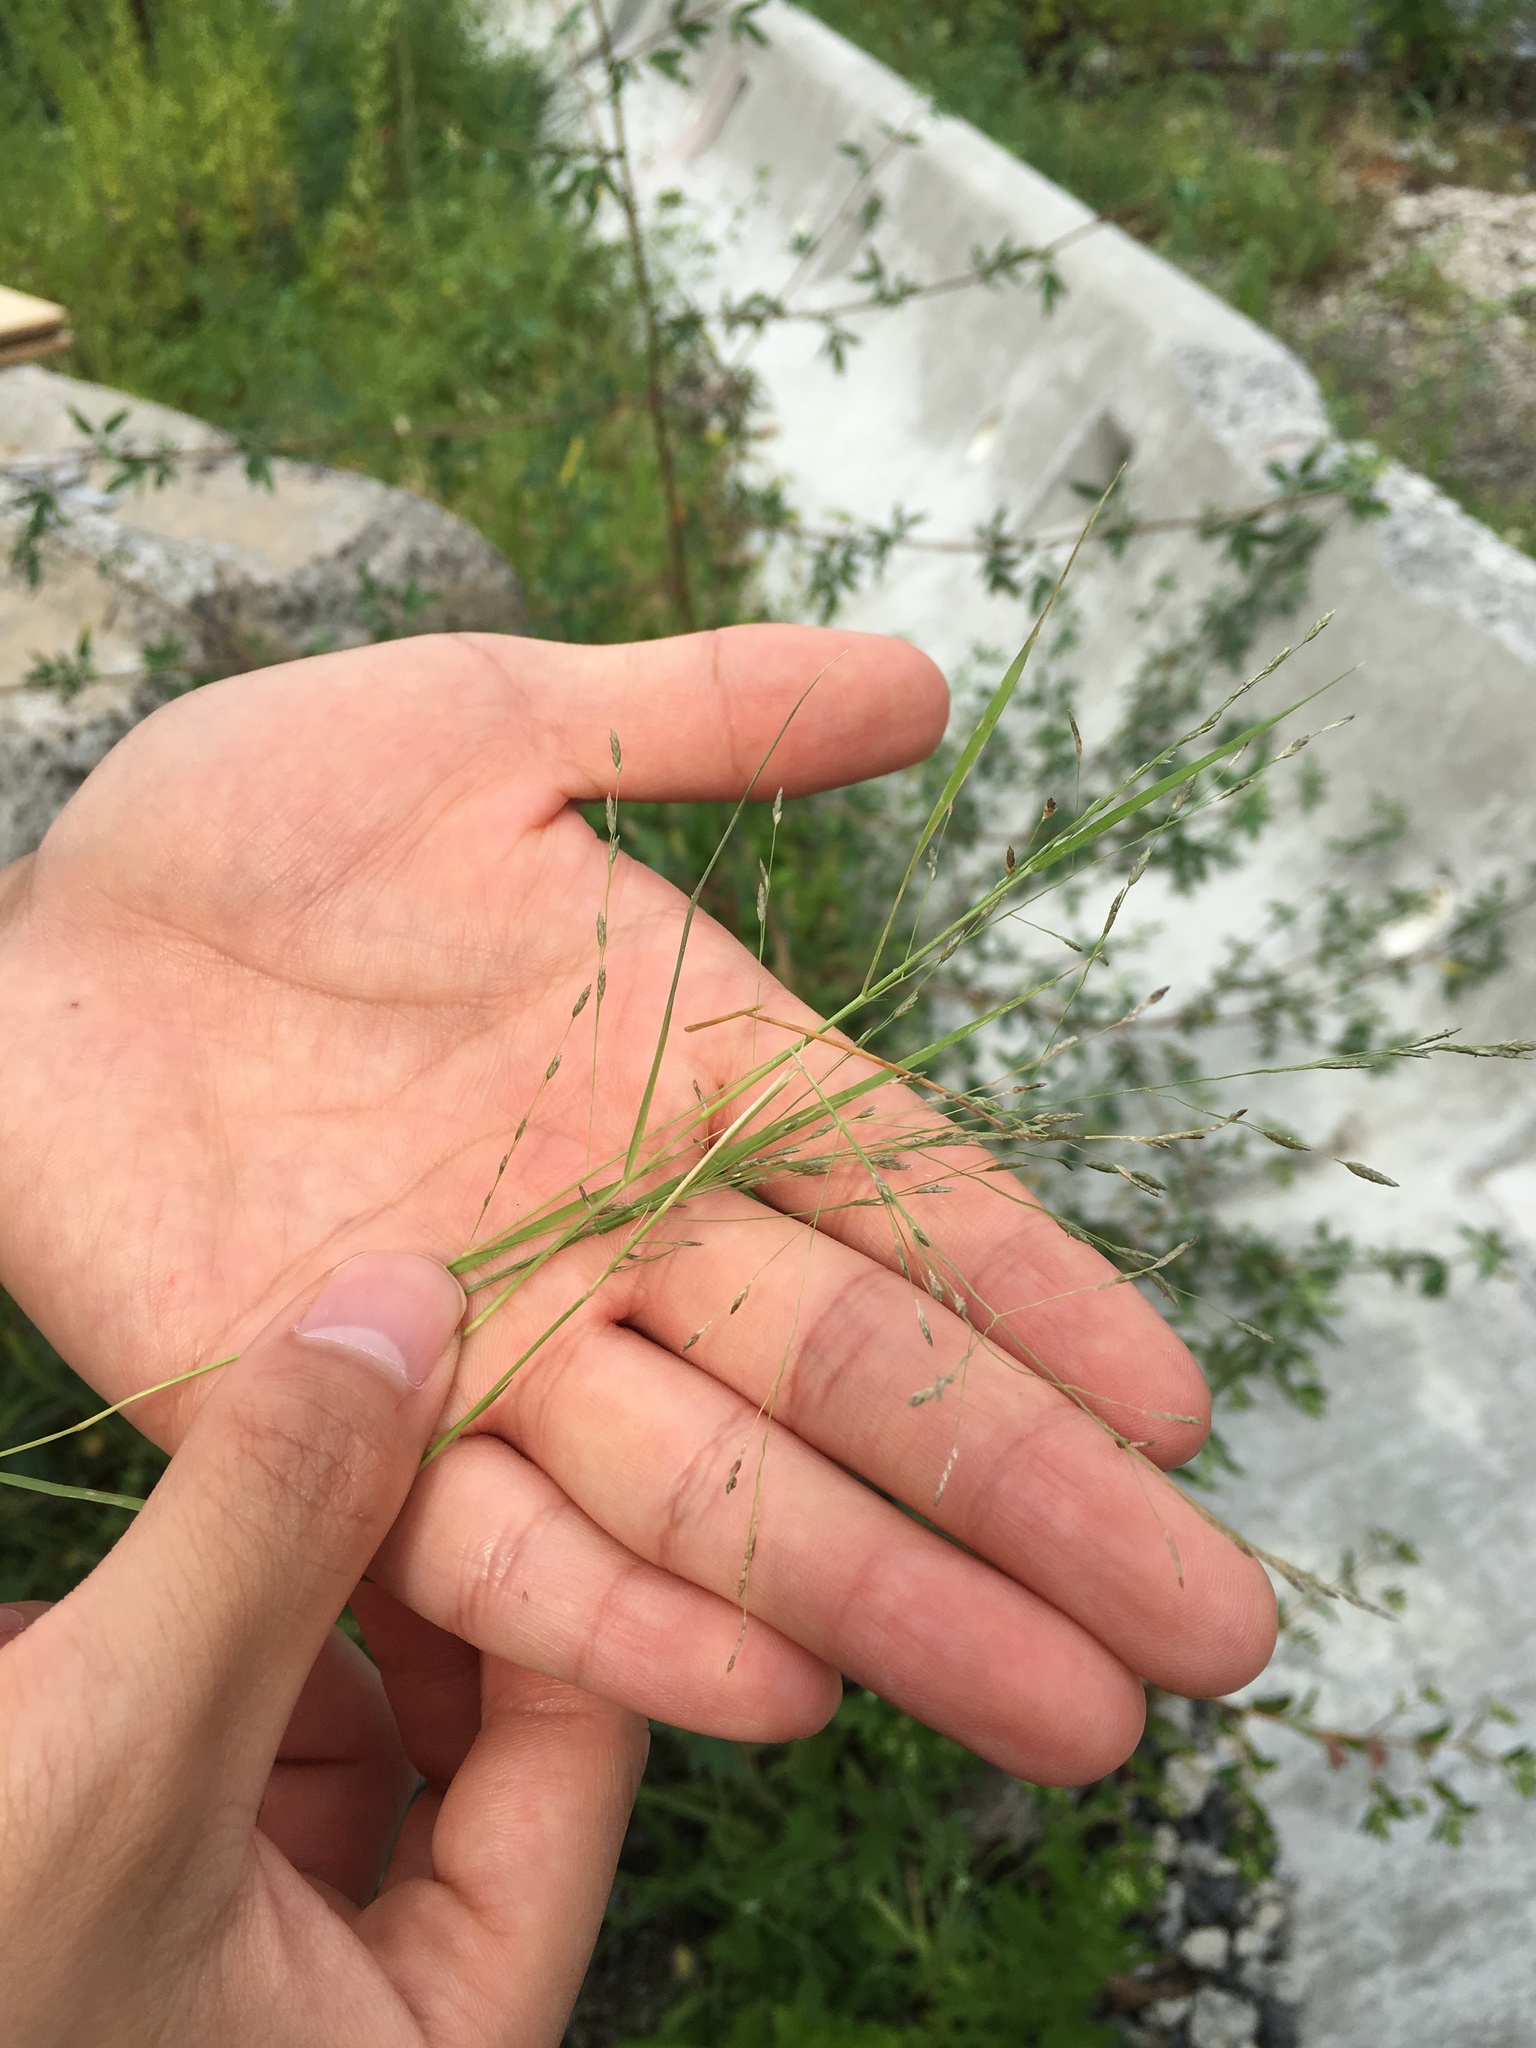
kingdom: Plantae
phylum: Tracheophyta
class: Liliopsida
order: Poales
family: Poaceae
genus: Eragrostis
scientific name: Eragrostis pectinacea
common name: Tufted lovegrass
